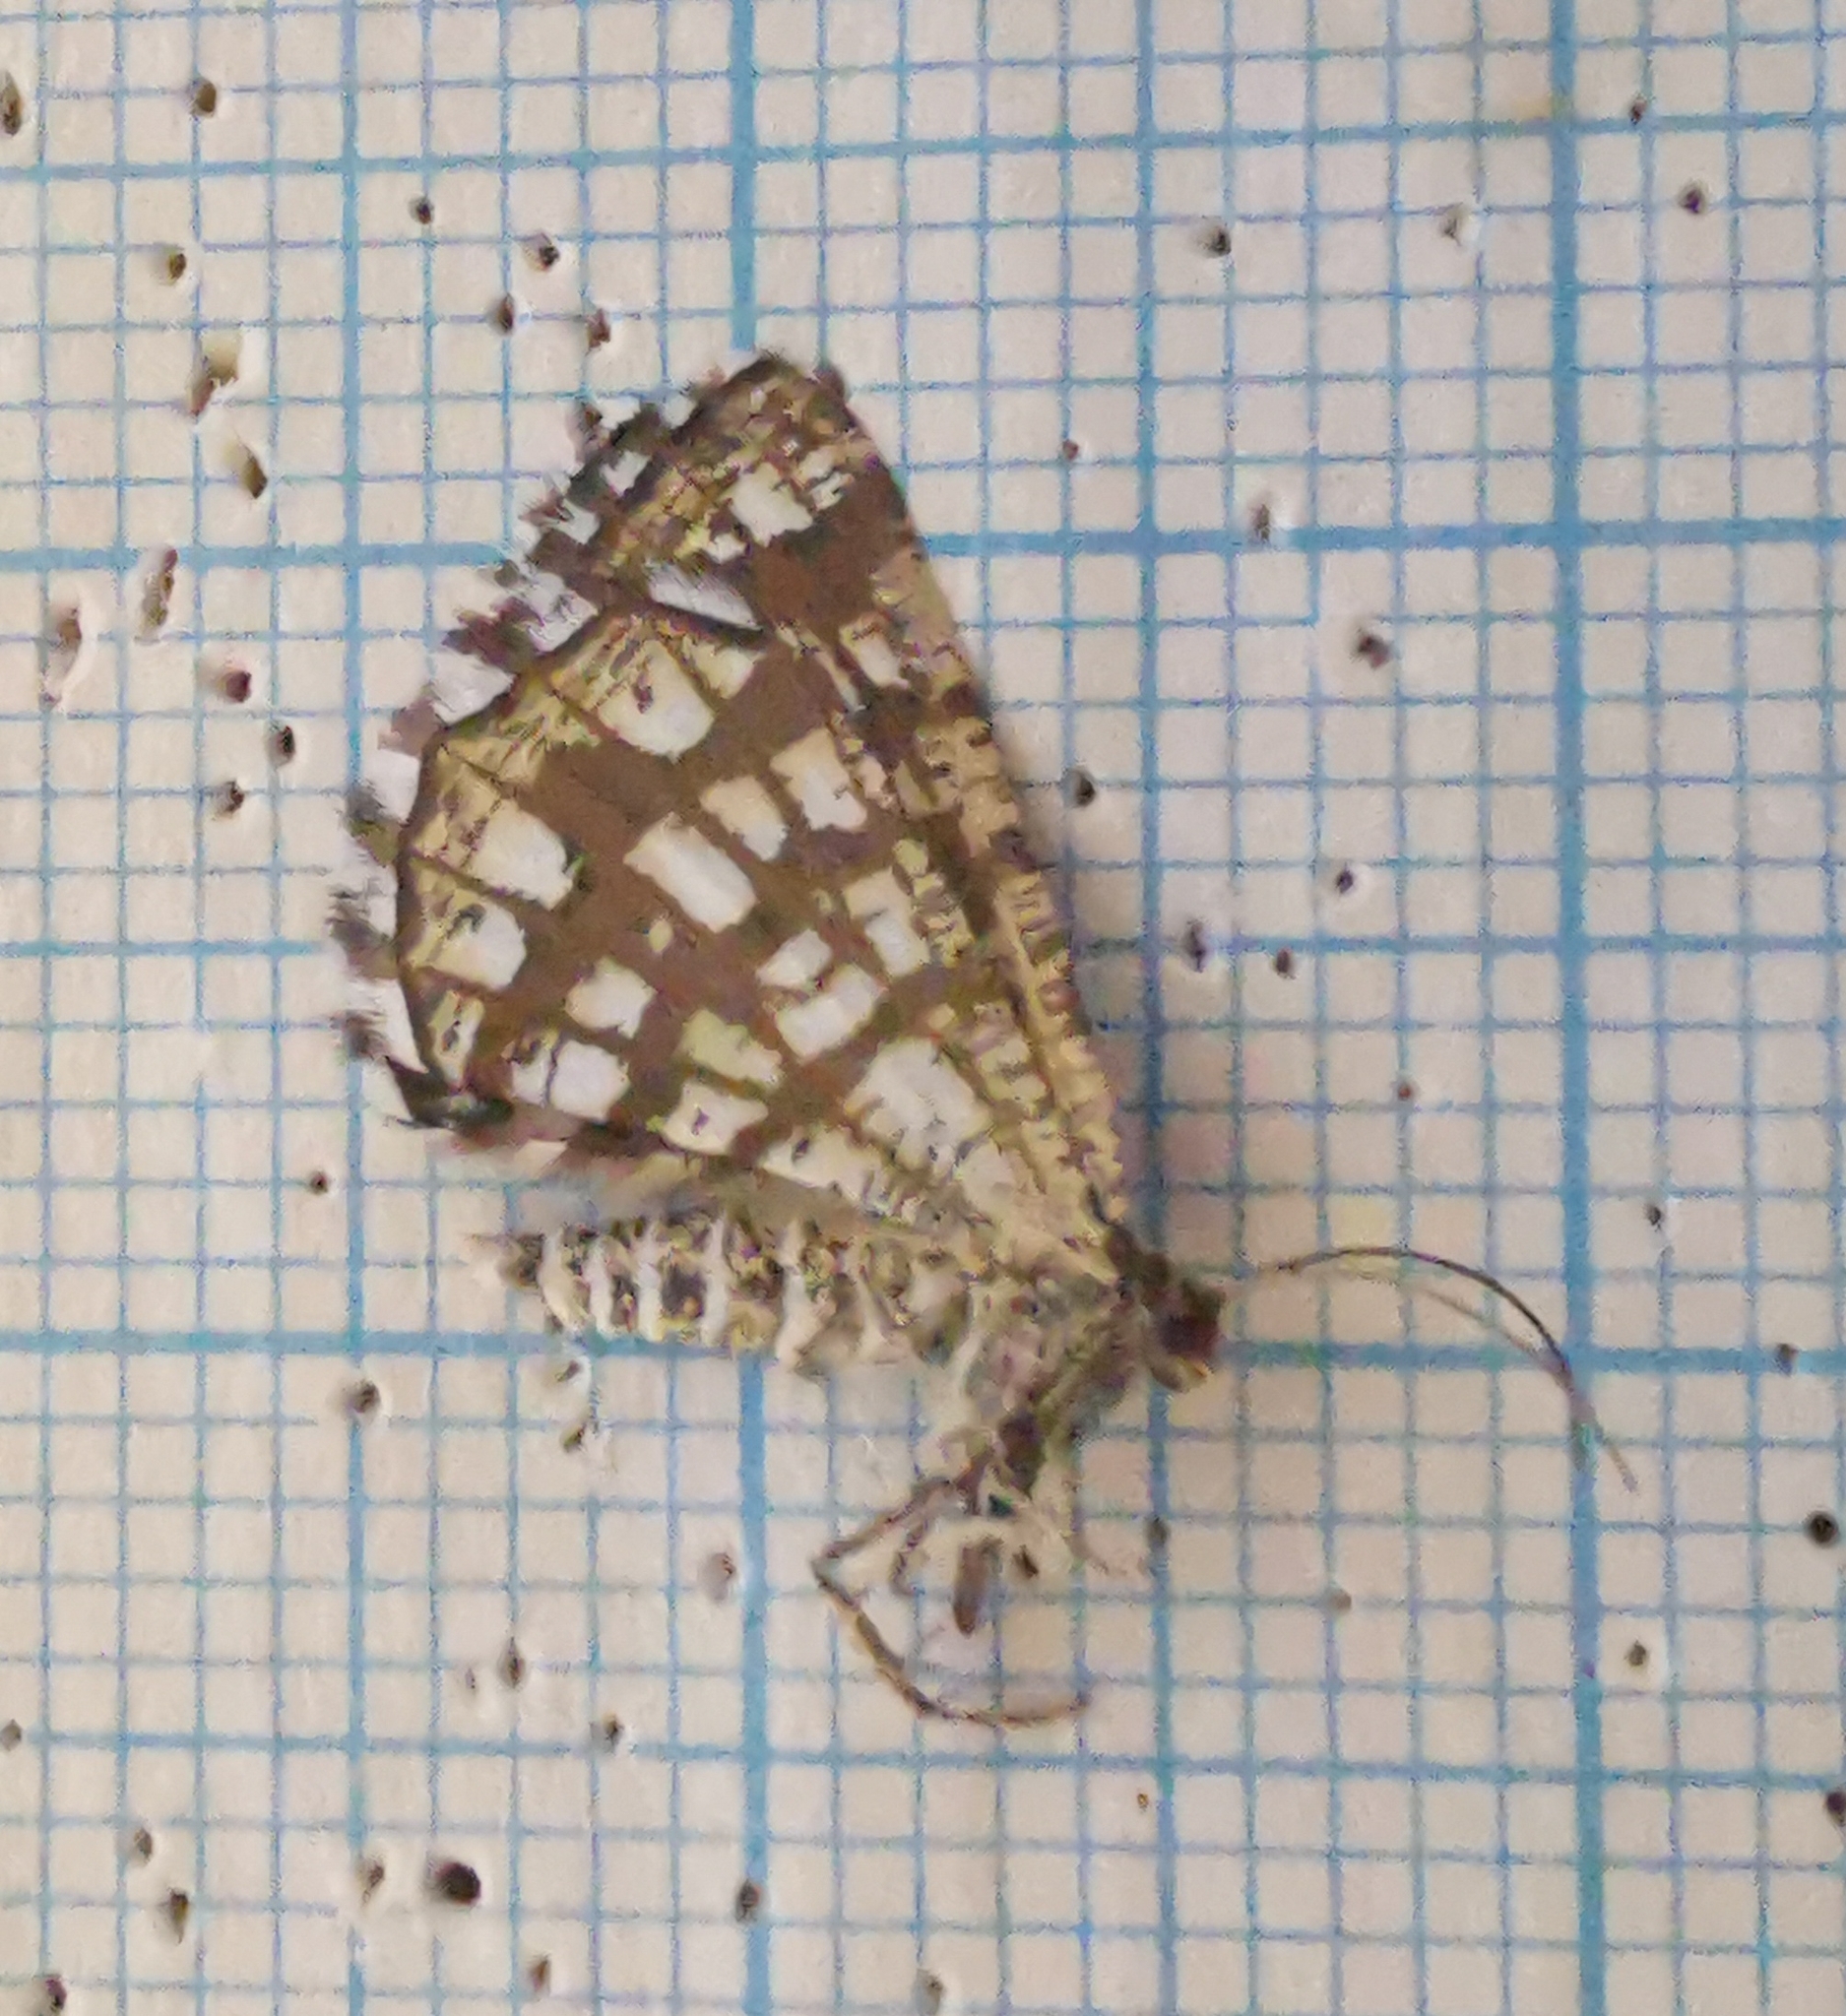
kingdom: Animalia
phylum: Arthropoda
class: Insecta
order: Lepidoptera
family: Geometridae
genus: Chiasmia
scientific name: Chiasmia clathrata
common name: Latticed heath
